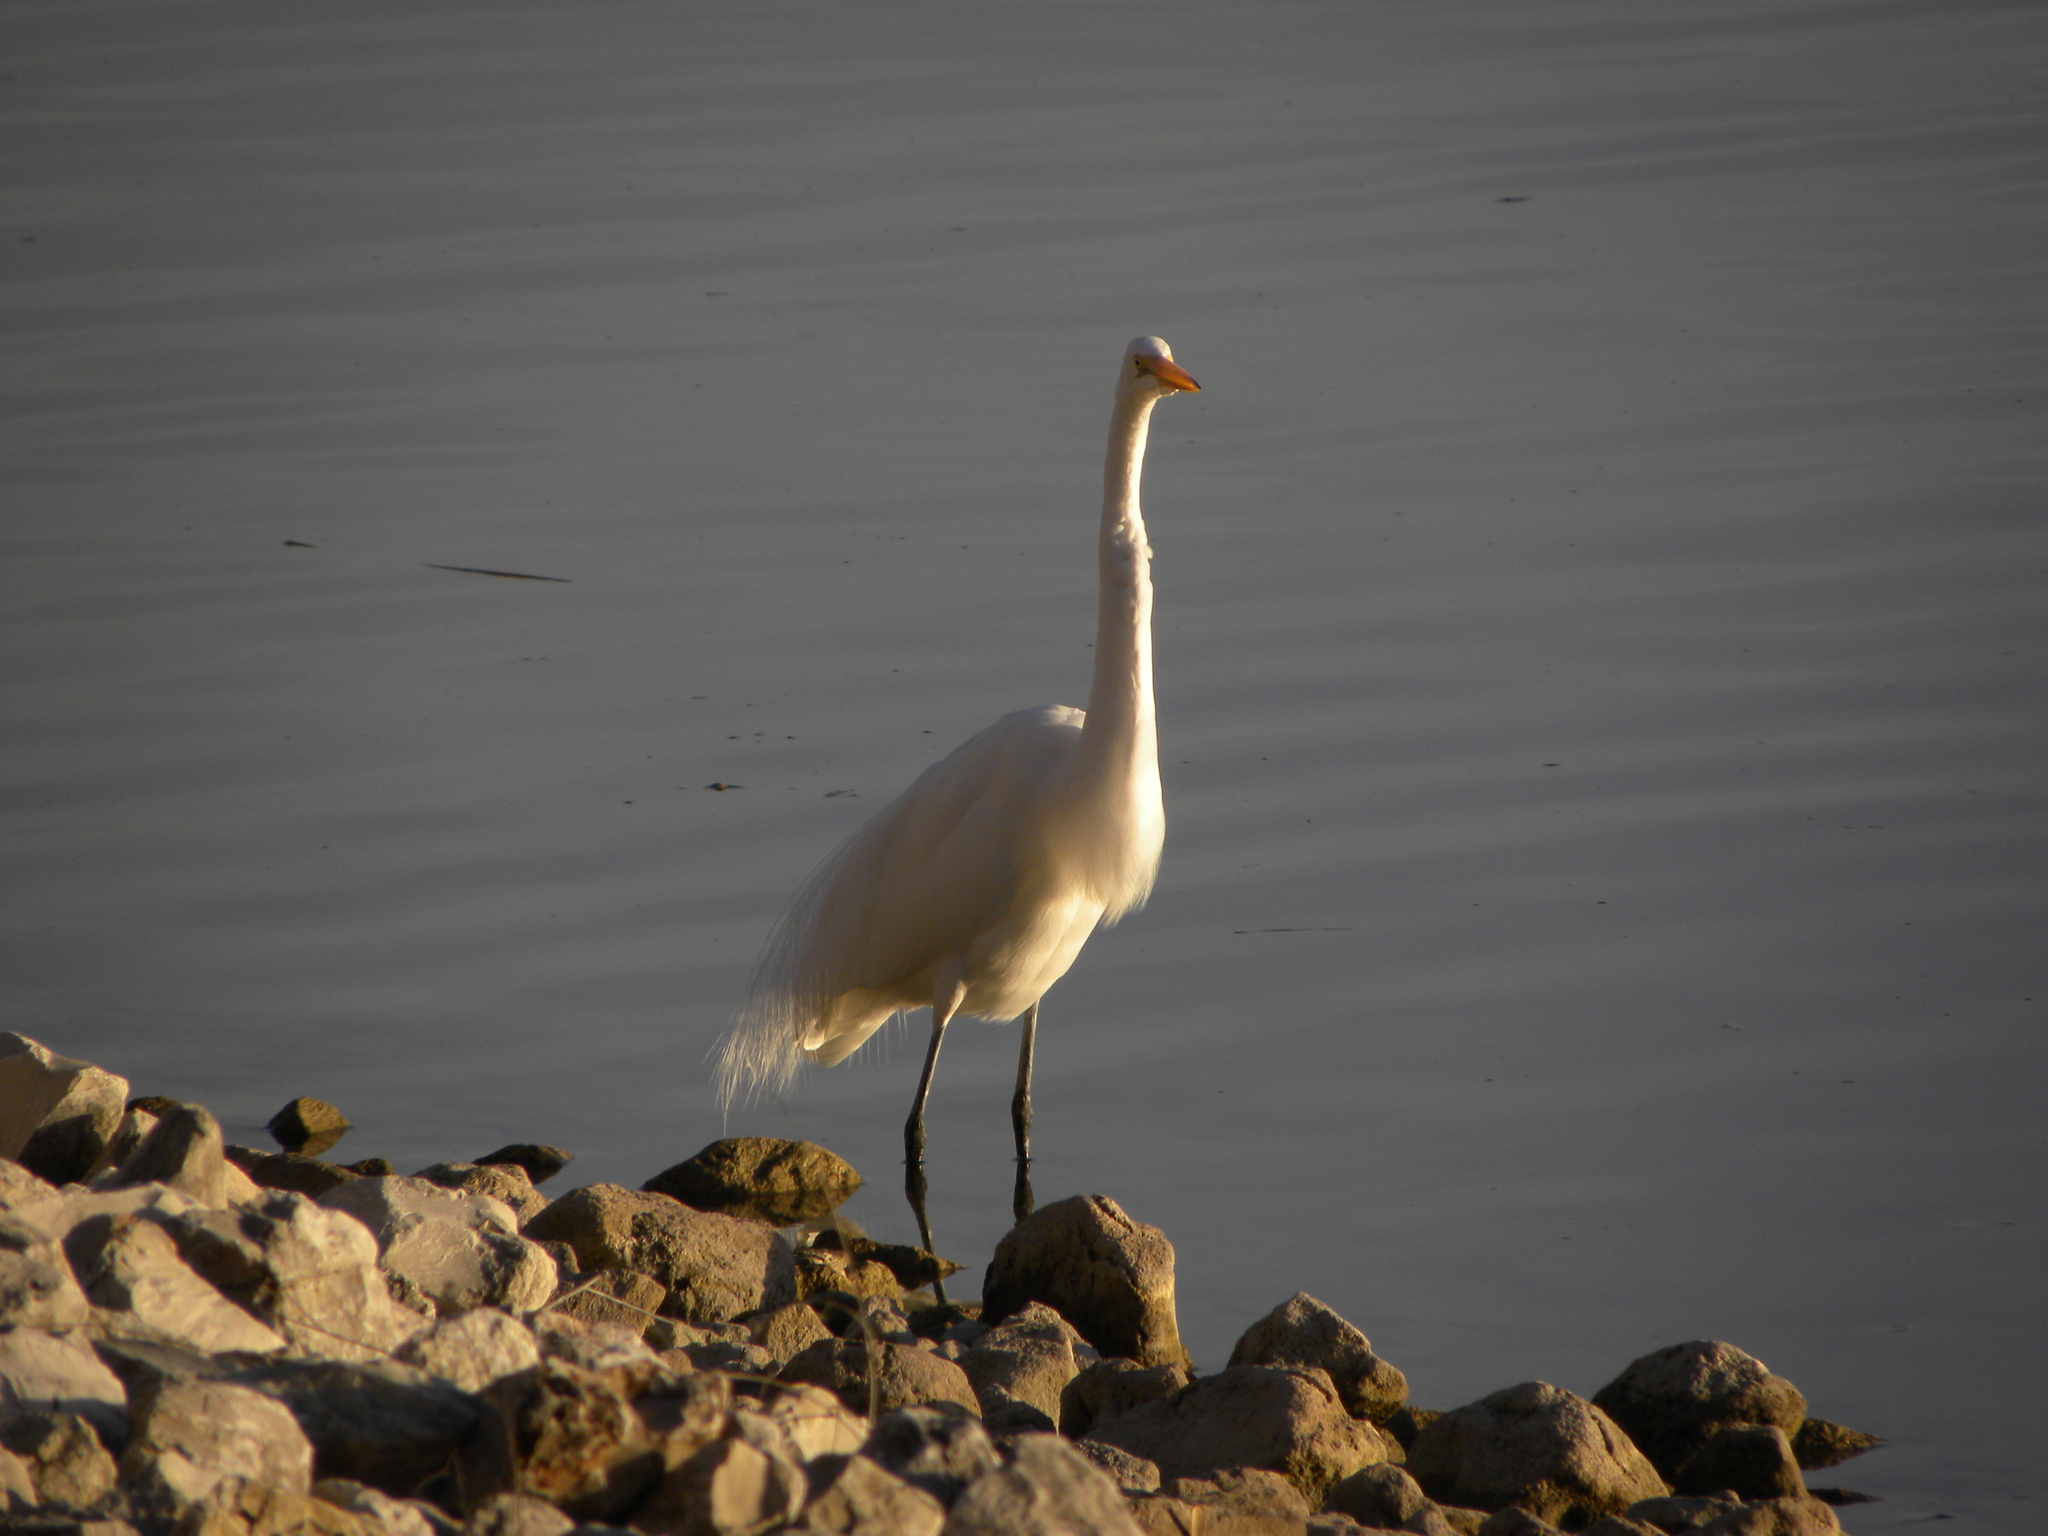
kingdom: Animalia
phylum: Chordata
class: Aves
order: Pelecaniformes
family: Ardeidae
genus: Ardea
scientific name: Ardea alba
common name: Great egret
